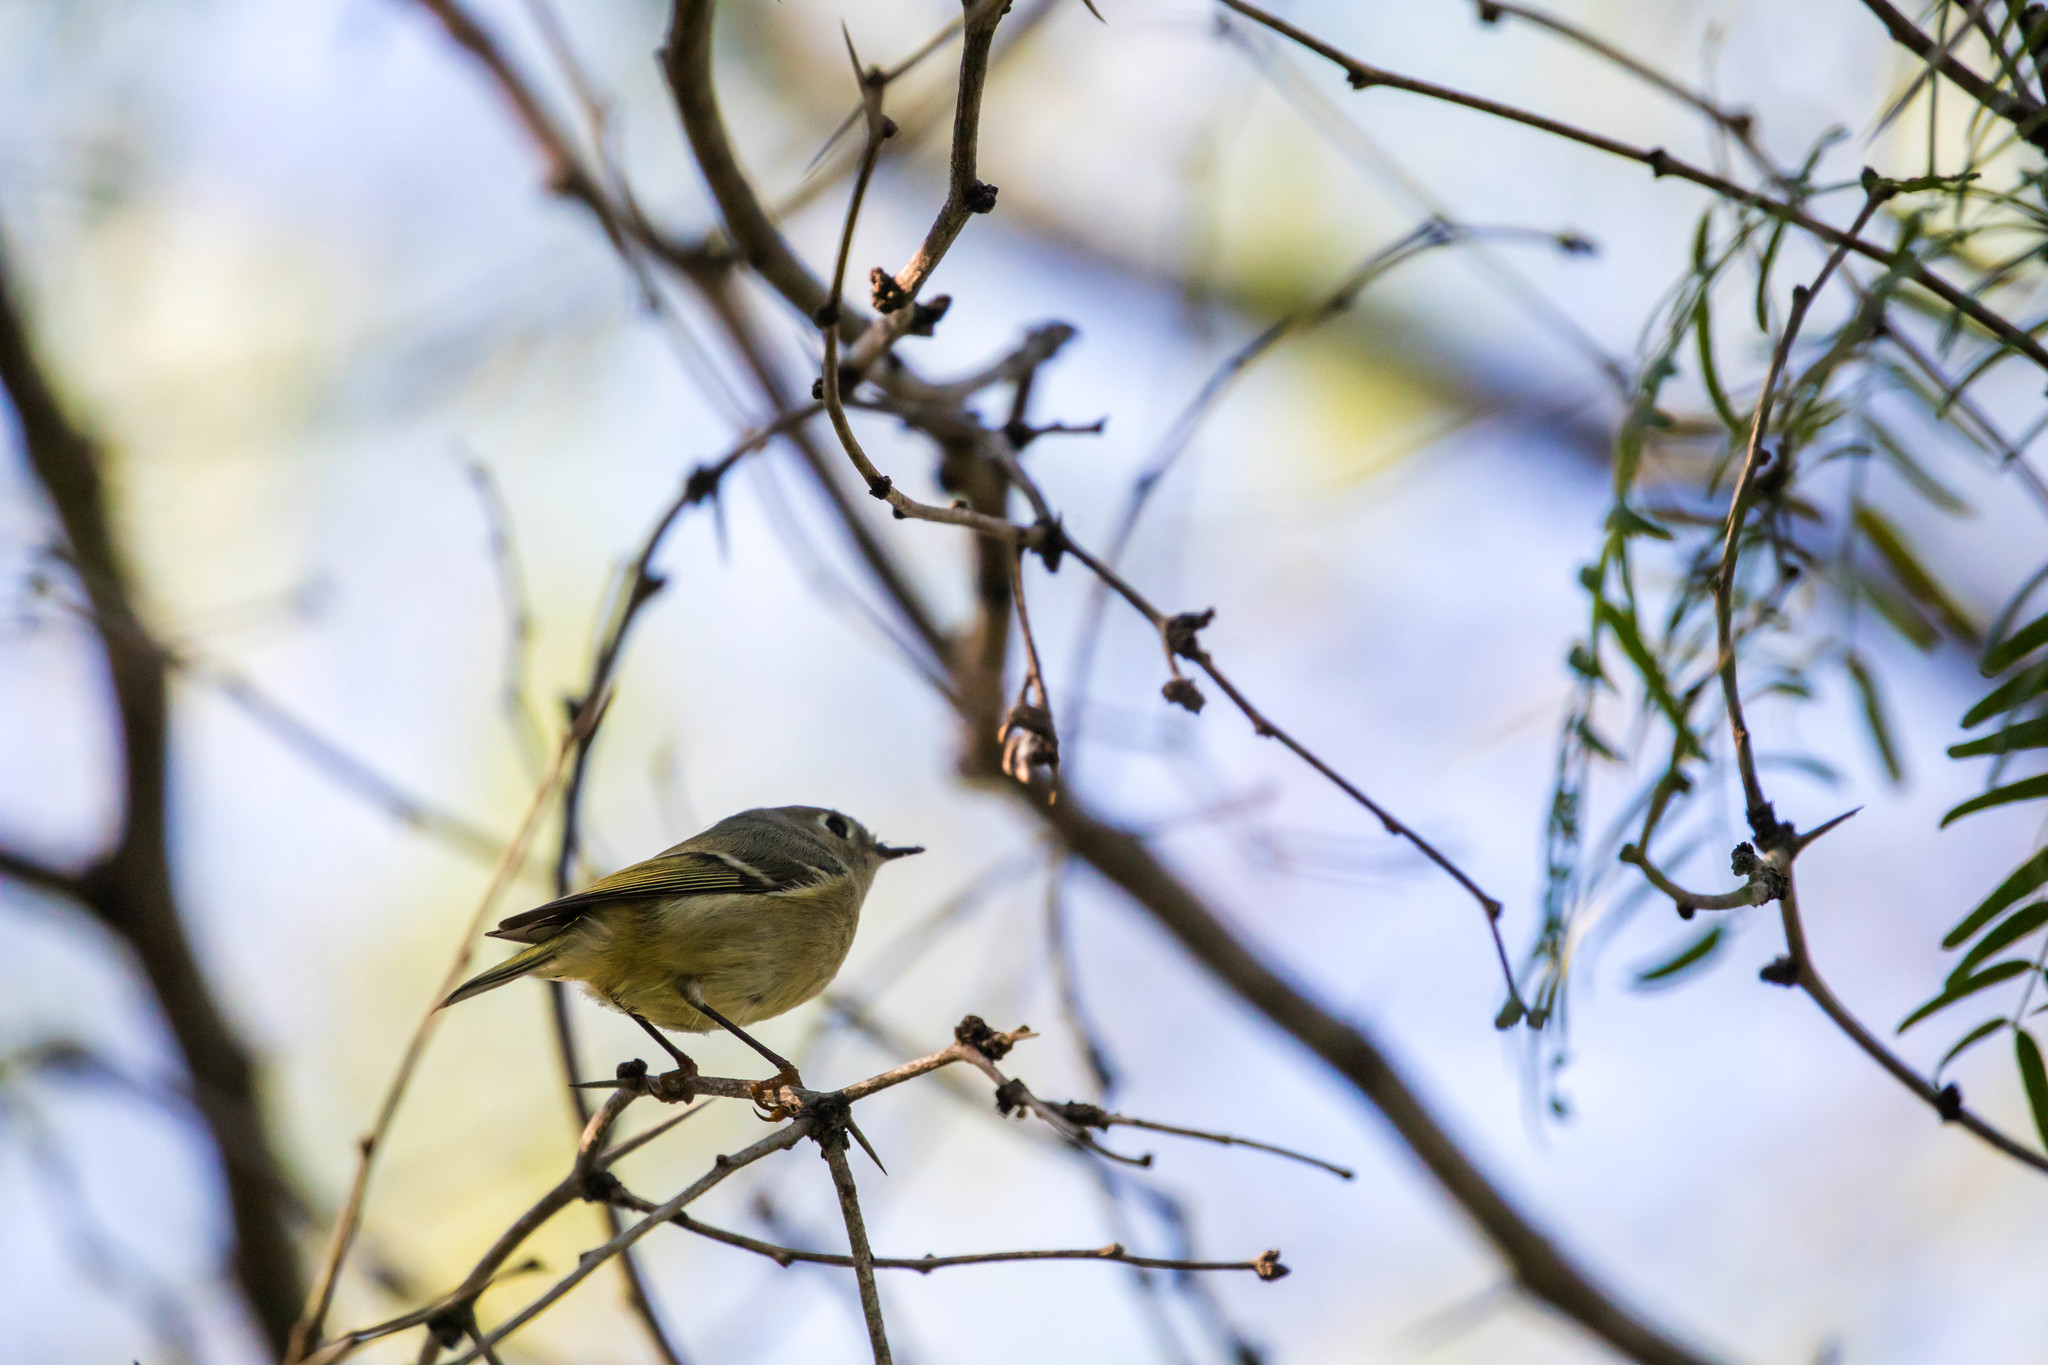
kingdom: Animalia
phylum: Chordata
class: Aves
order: Passeriformes
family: Regulidae
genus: Regulus
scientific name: Regulus calendula
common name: Ruby-crowned kinglet
